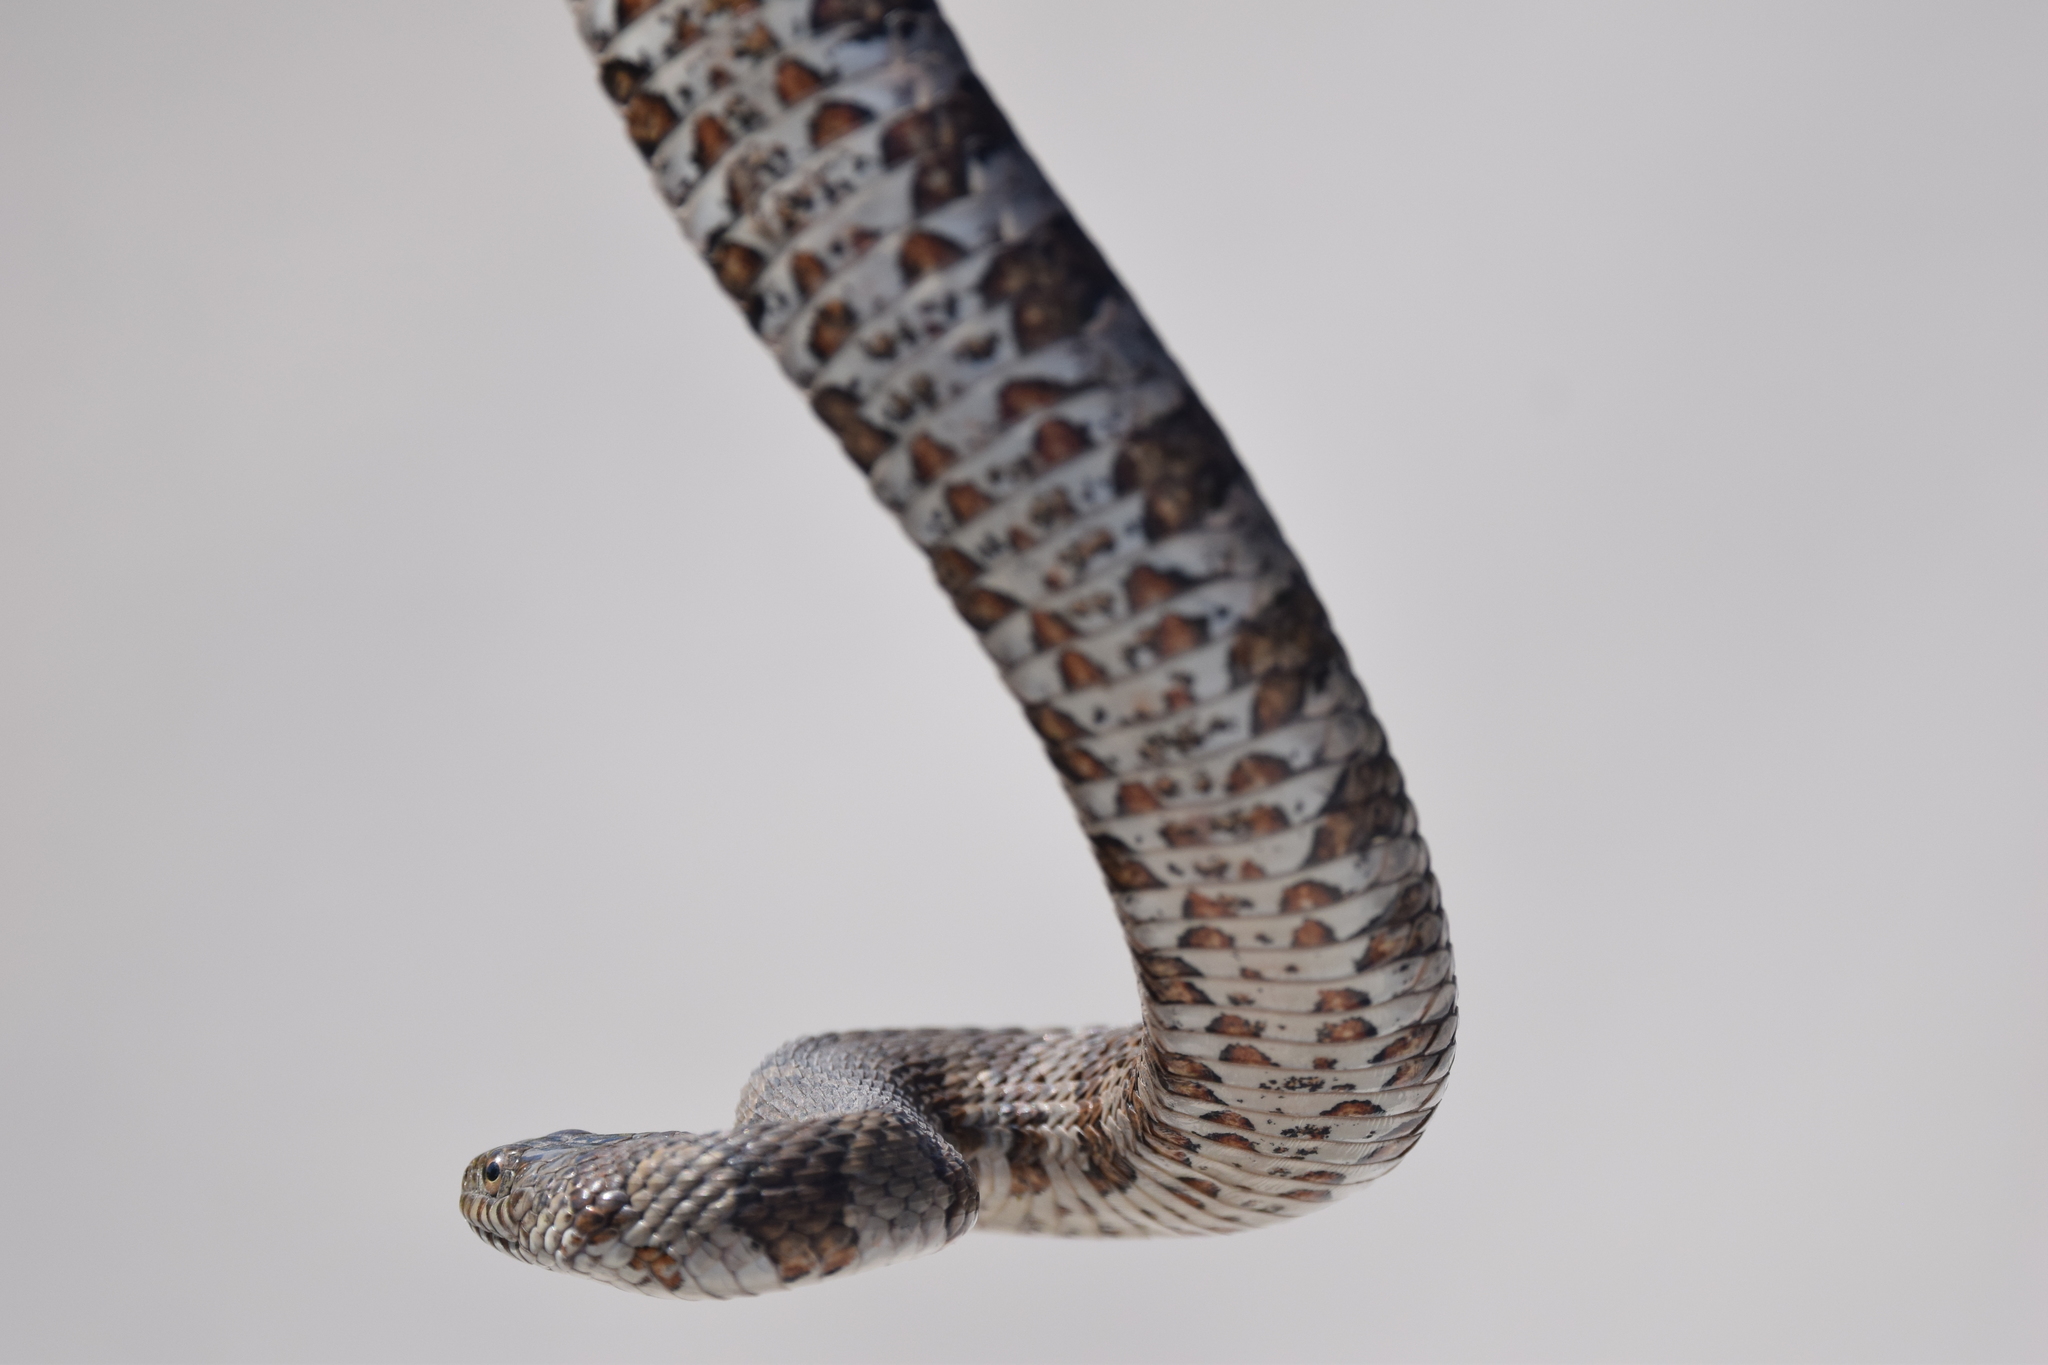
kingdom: Animalia
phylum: Chordata
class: Squamata
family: Colubridae
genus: Nerodia
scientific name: Nerodia sipedon
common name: Northern water snake
